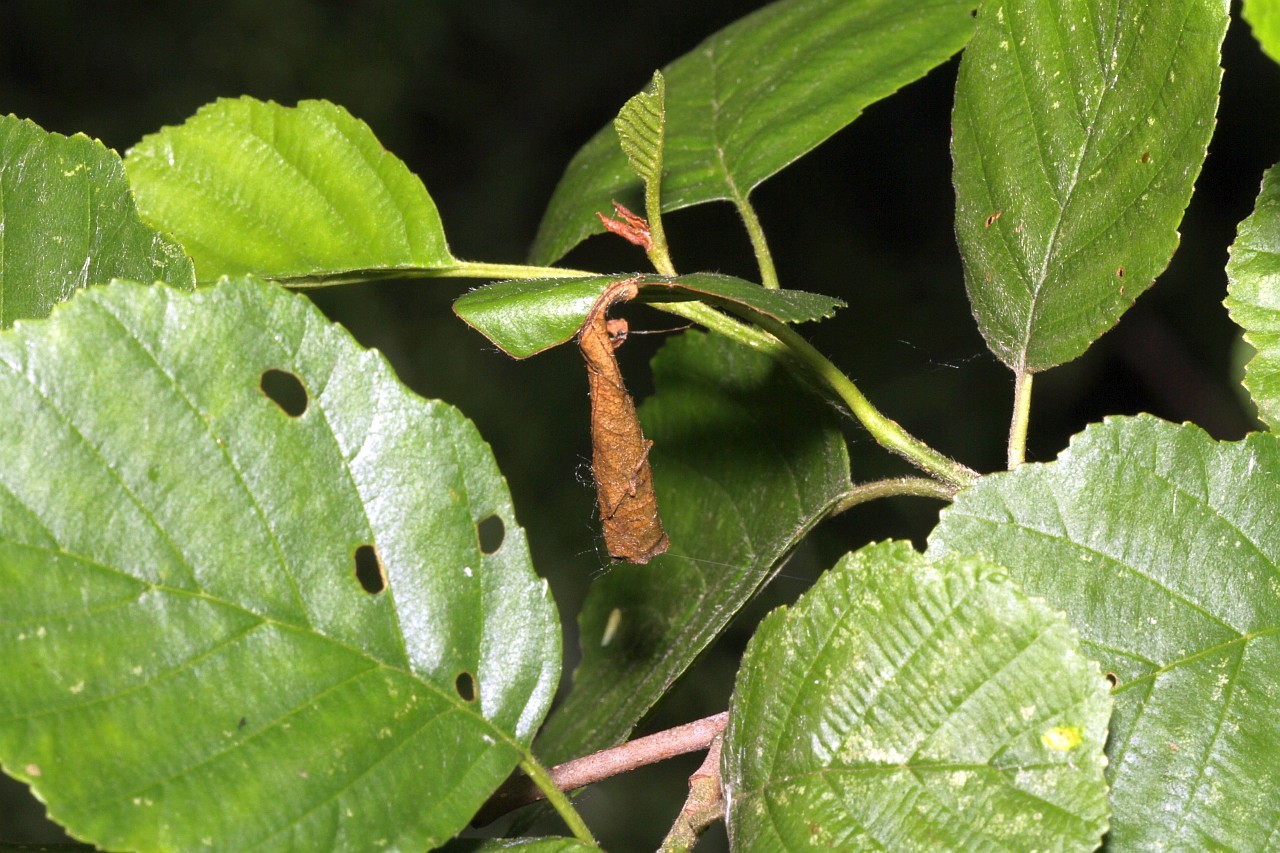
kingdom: Animalia
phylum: Arthropoda
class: Insecta
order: Coleoptera
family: Attelabidae
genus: Deporaus
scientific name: Deporaus betulae
